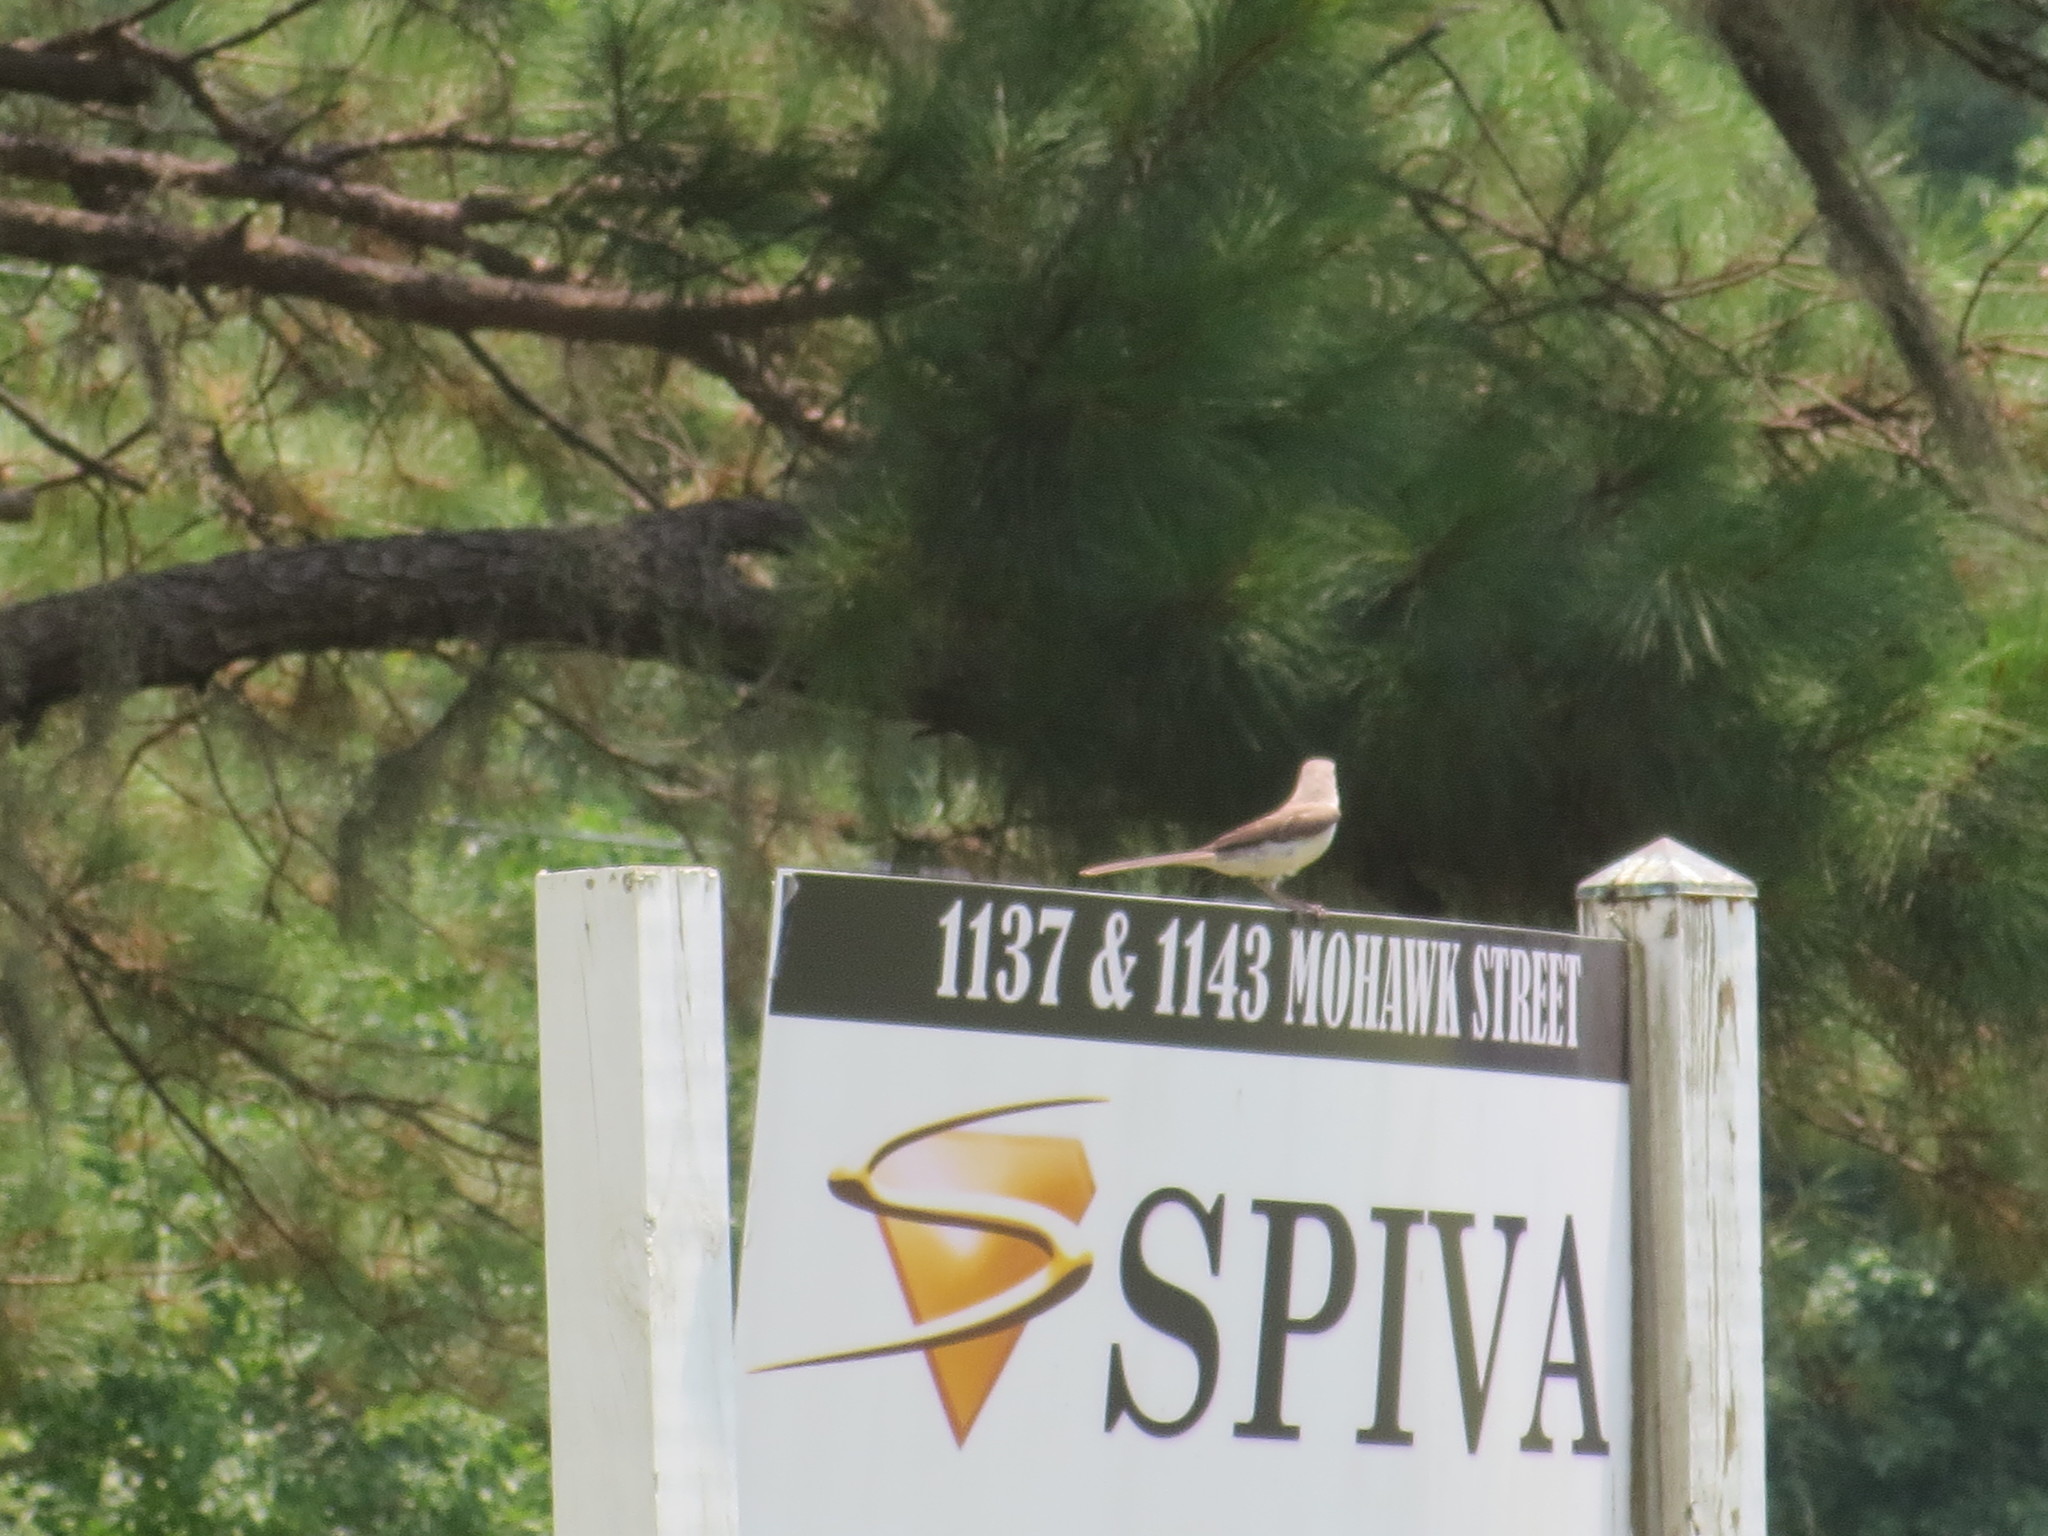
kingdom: Animalia
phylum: Chordata
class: Aves
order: Passeriformes
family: Mimidae
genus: Mimus
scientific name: Mimus polyglottos
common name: Northern mockingbird
